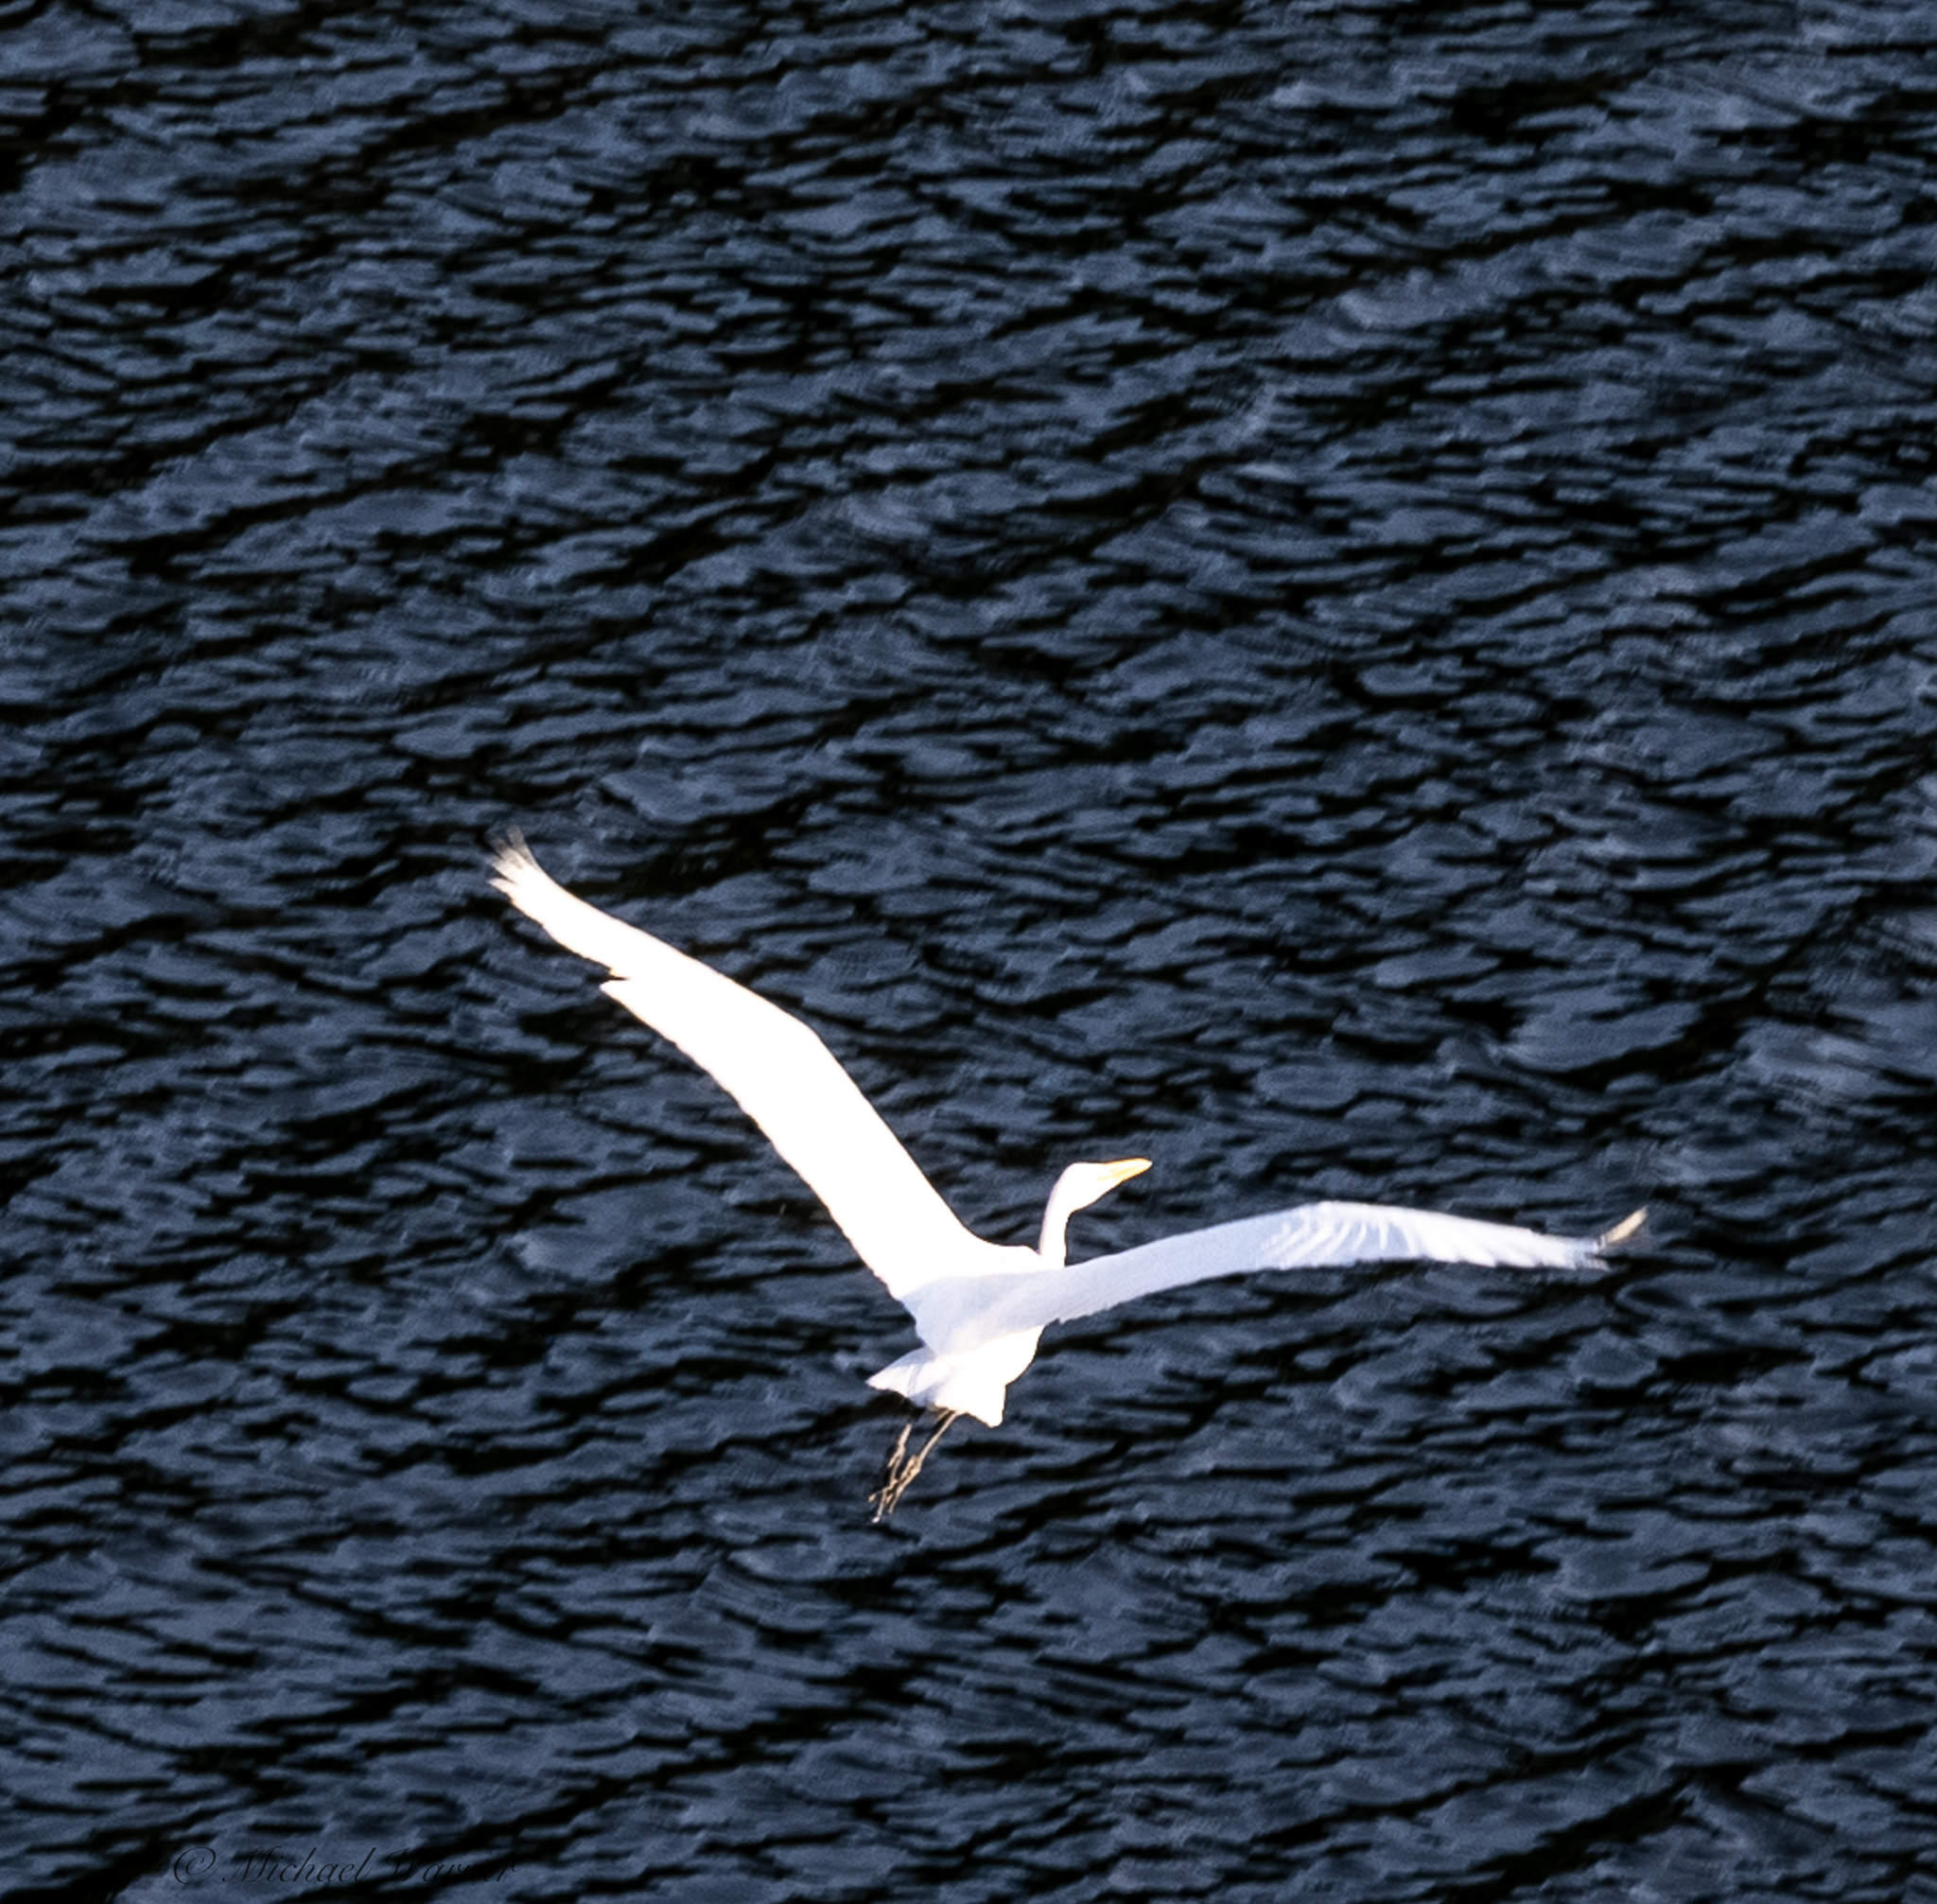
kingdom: Animalia
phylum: Chordata
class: Aves
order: Pelecaniformes
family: Ardeidae
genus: Ardea
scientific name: Ardea alba
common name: Great egret
